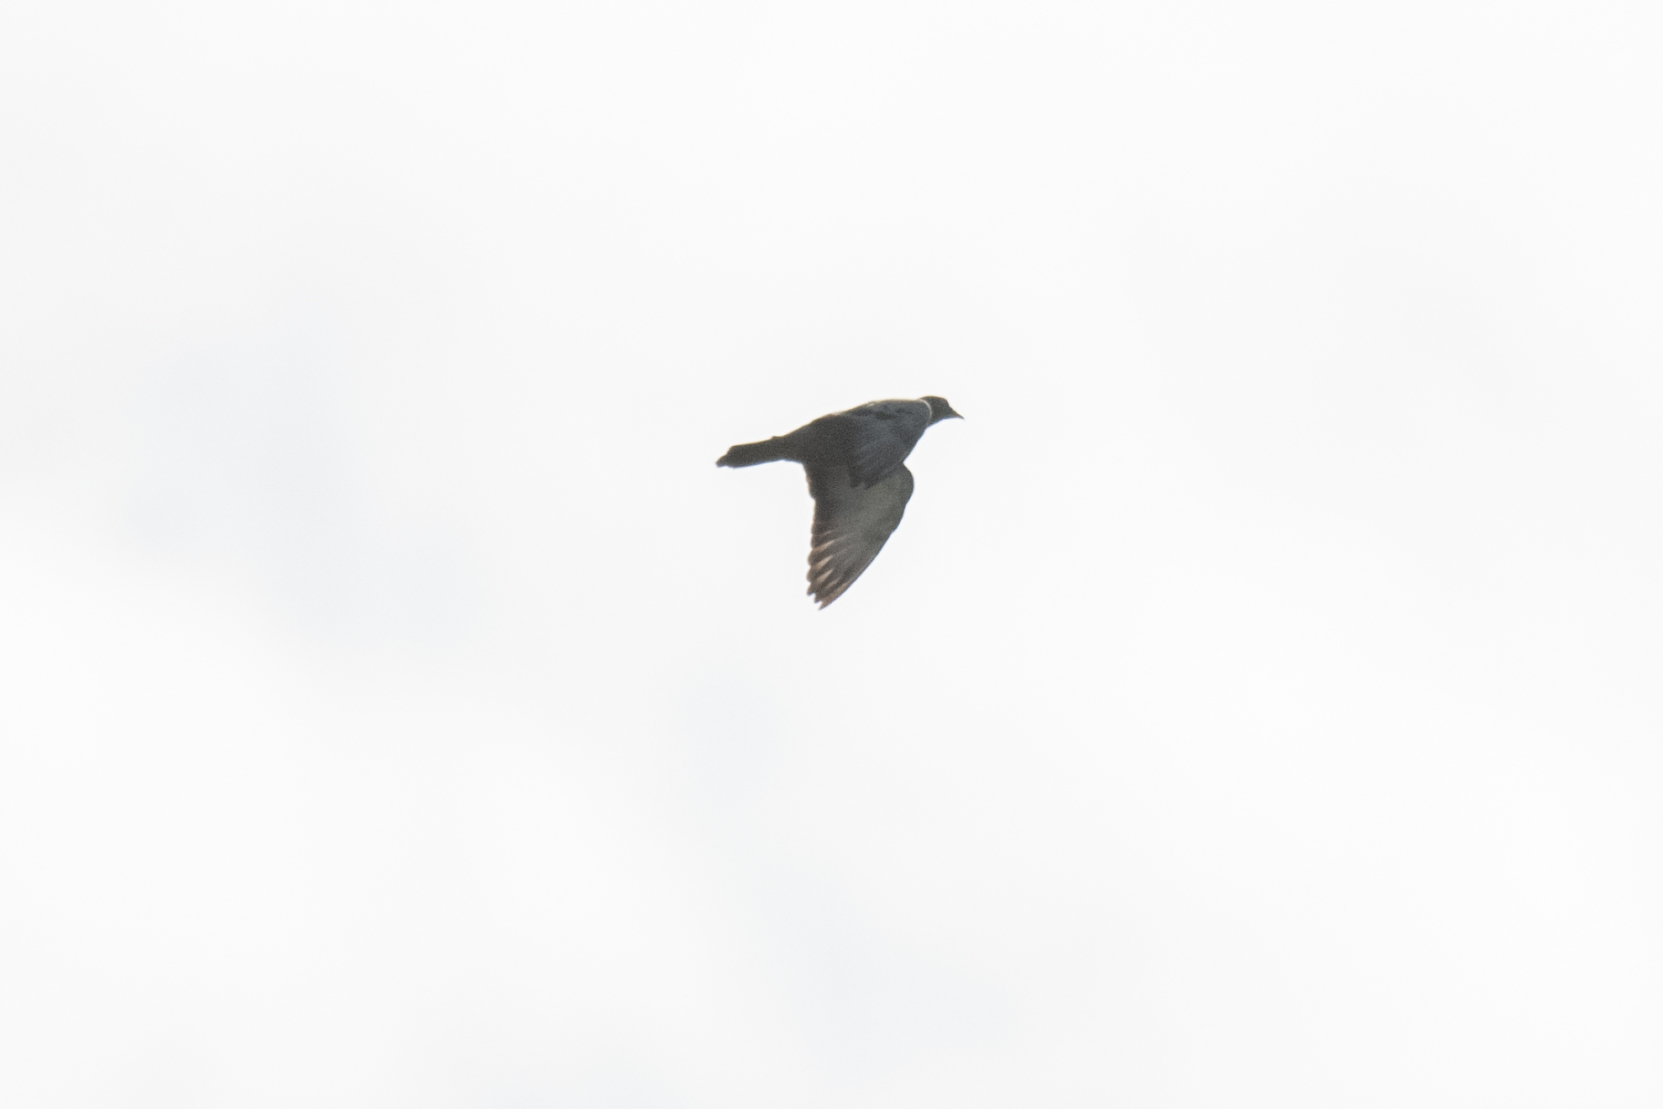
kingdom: Animalia
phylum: Chordata
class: Aves
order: Columbiformes
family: Columbidae
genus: Columba
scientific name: Columba livia
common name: Rock pigeon
